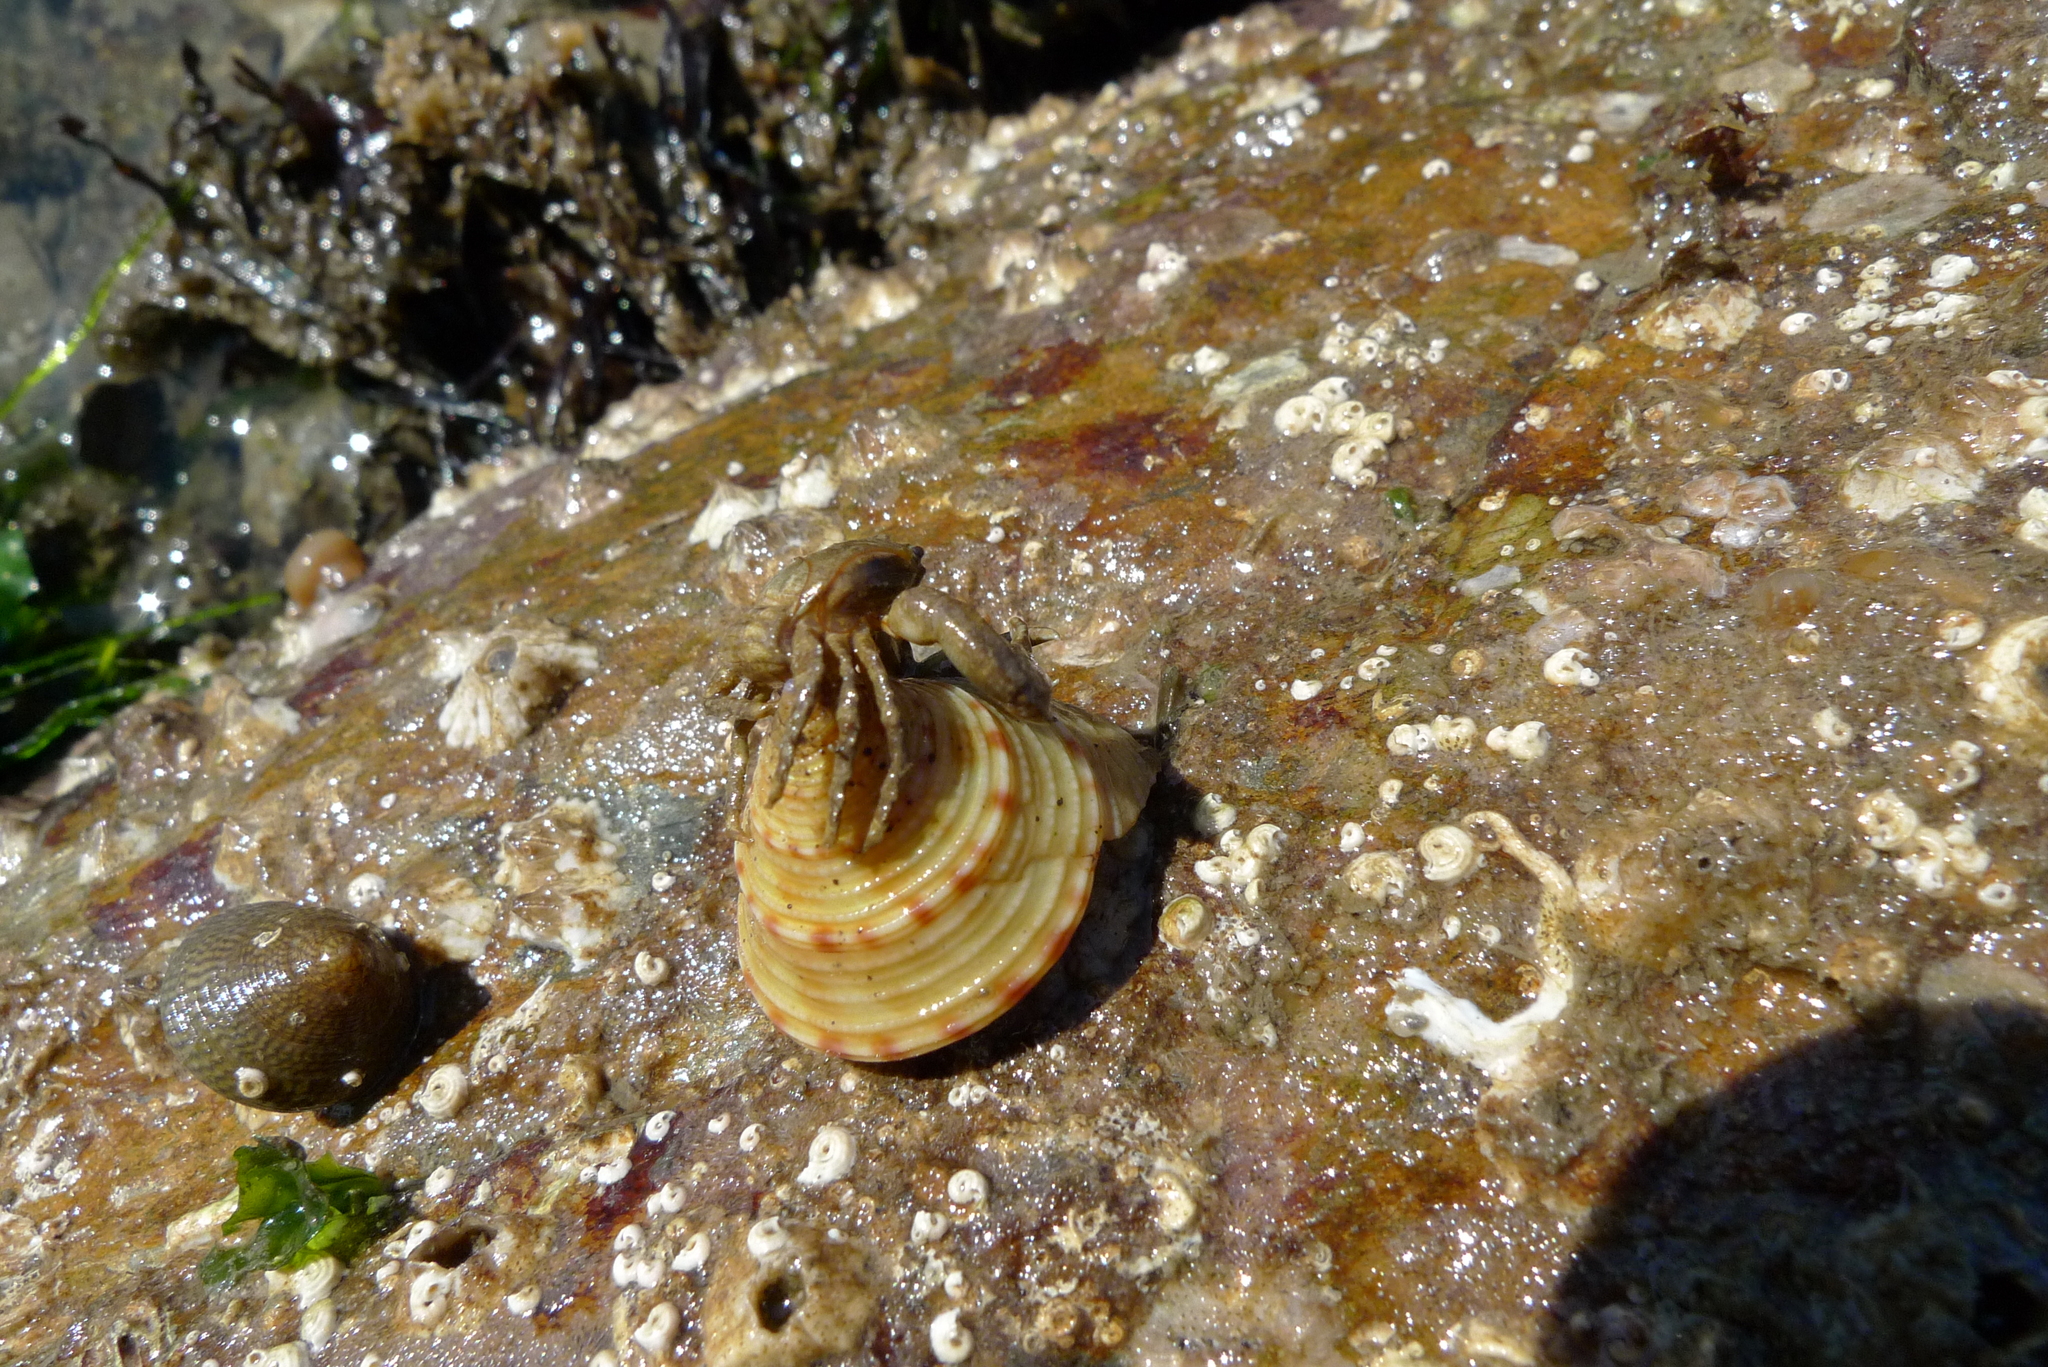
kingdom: Animalia
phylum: Mollusca
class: Gastropoda
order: Trochida
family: Calliostomatidae
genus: Calliostoma
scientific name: Calliostoma zizyphinum
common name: Painted top shell
